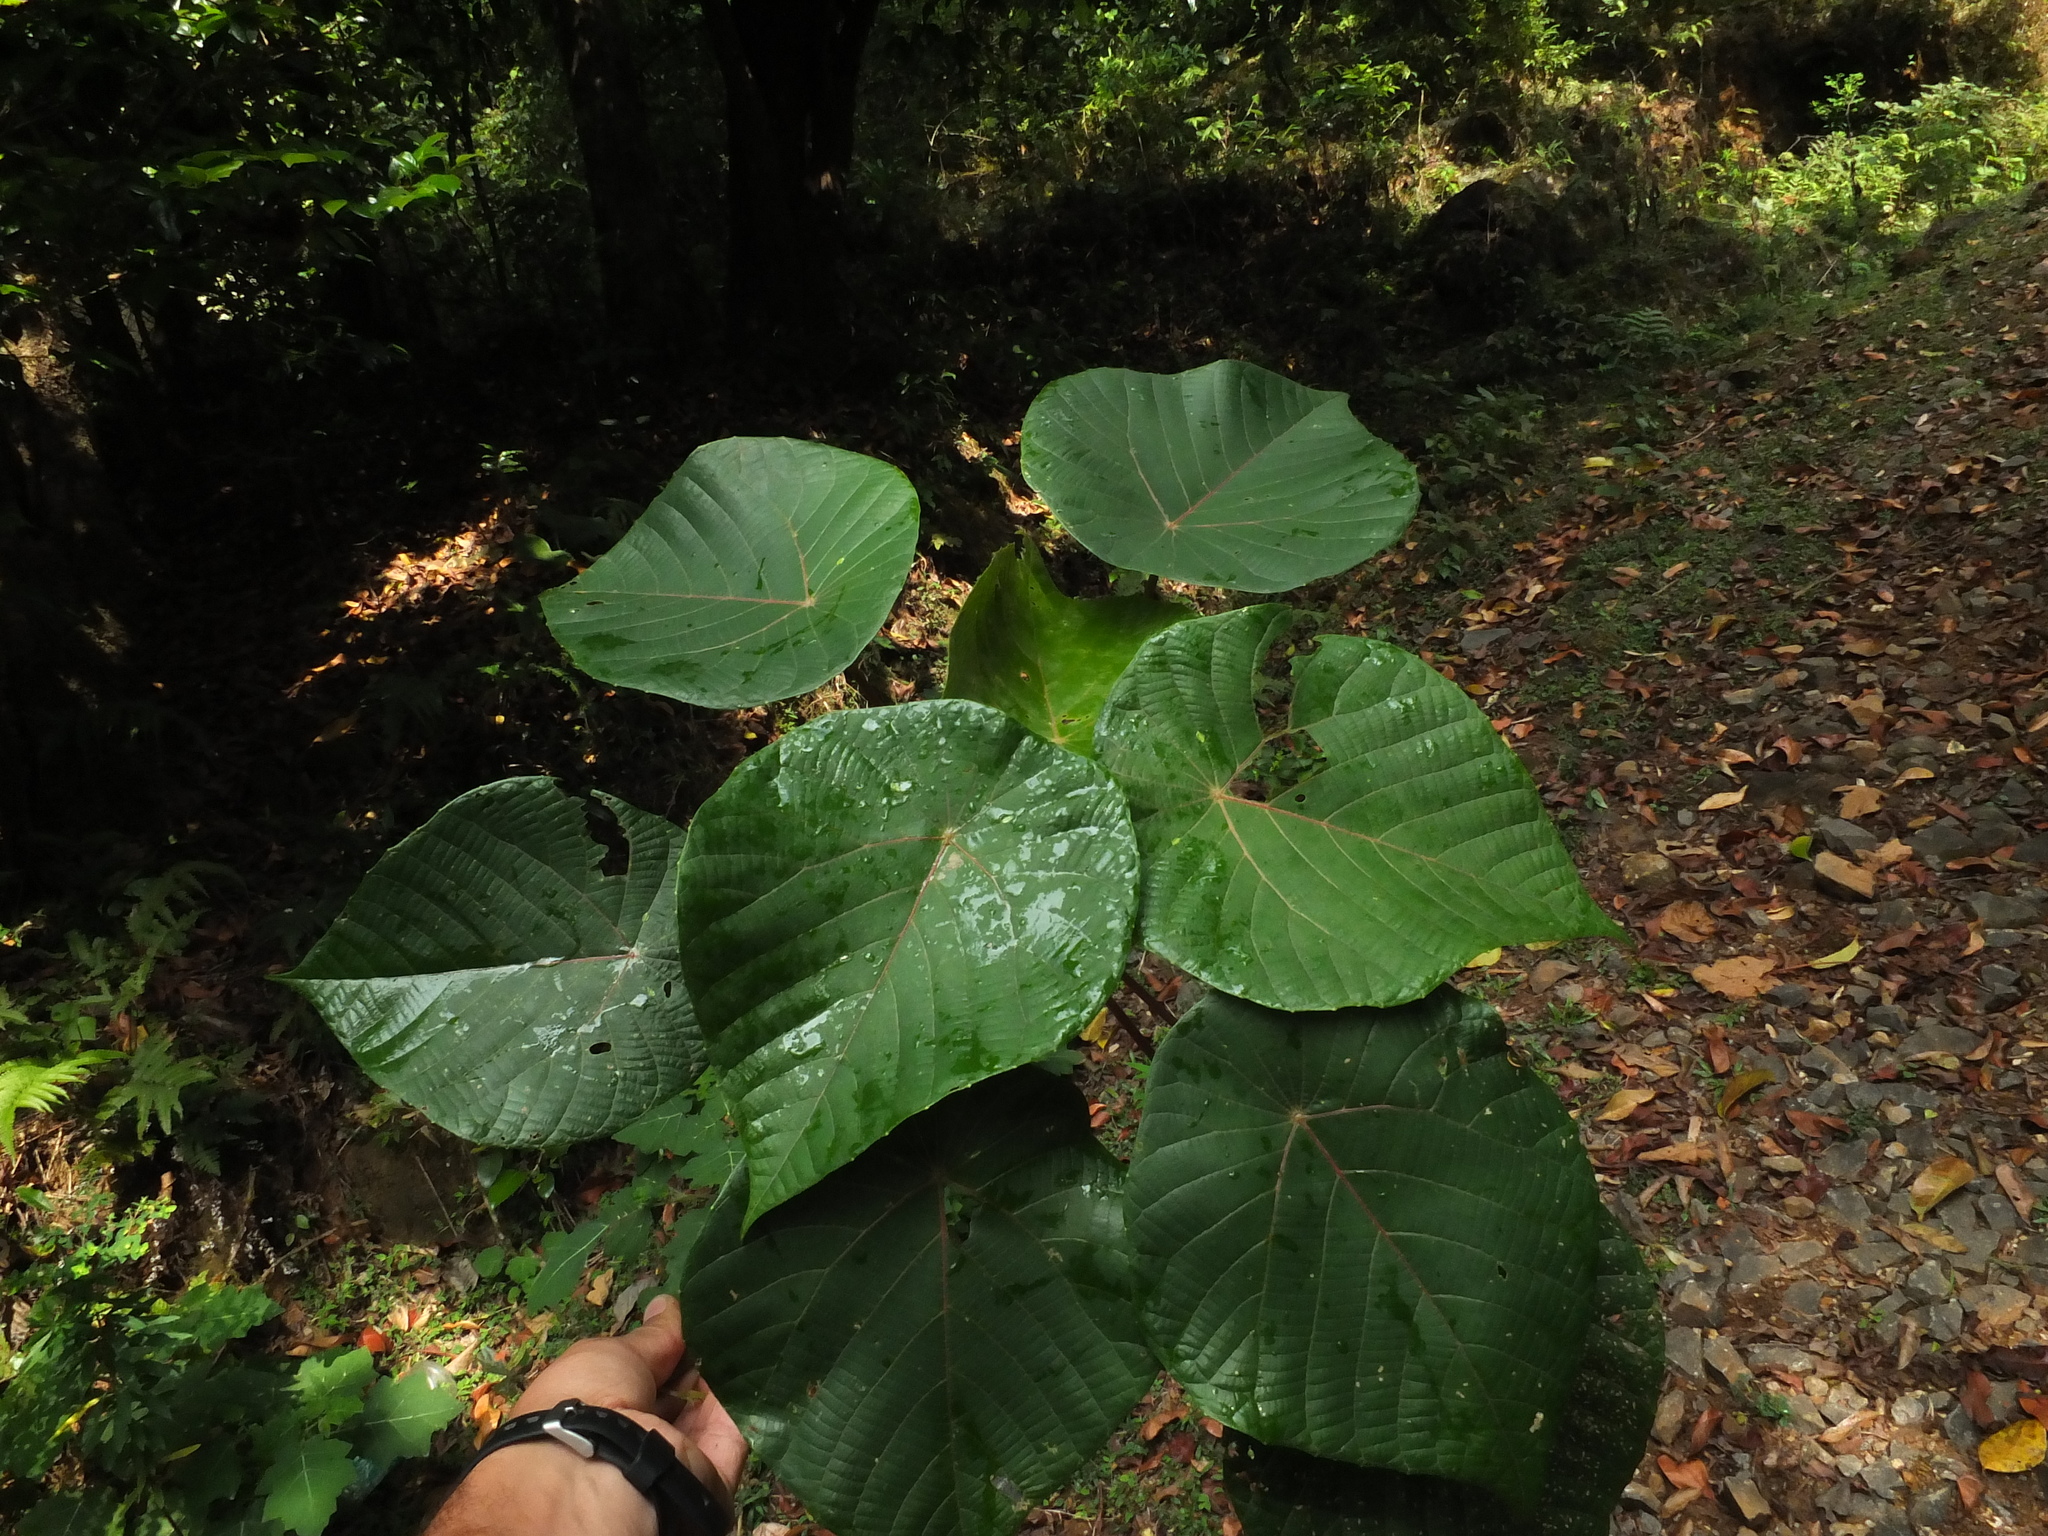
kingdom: Plantae
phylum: Tracheophyta
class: Magnoliopsida
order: Malpighiales
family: Euphorbiaceae
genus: Macaranga
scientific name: Macaranga peltata
